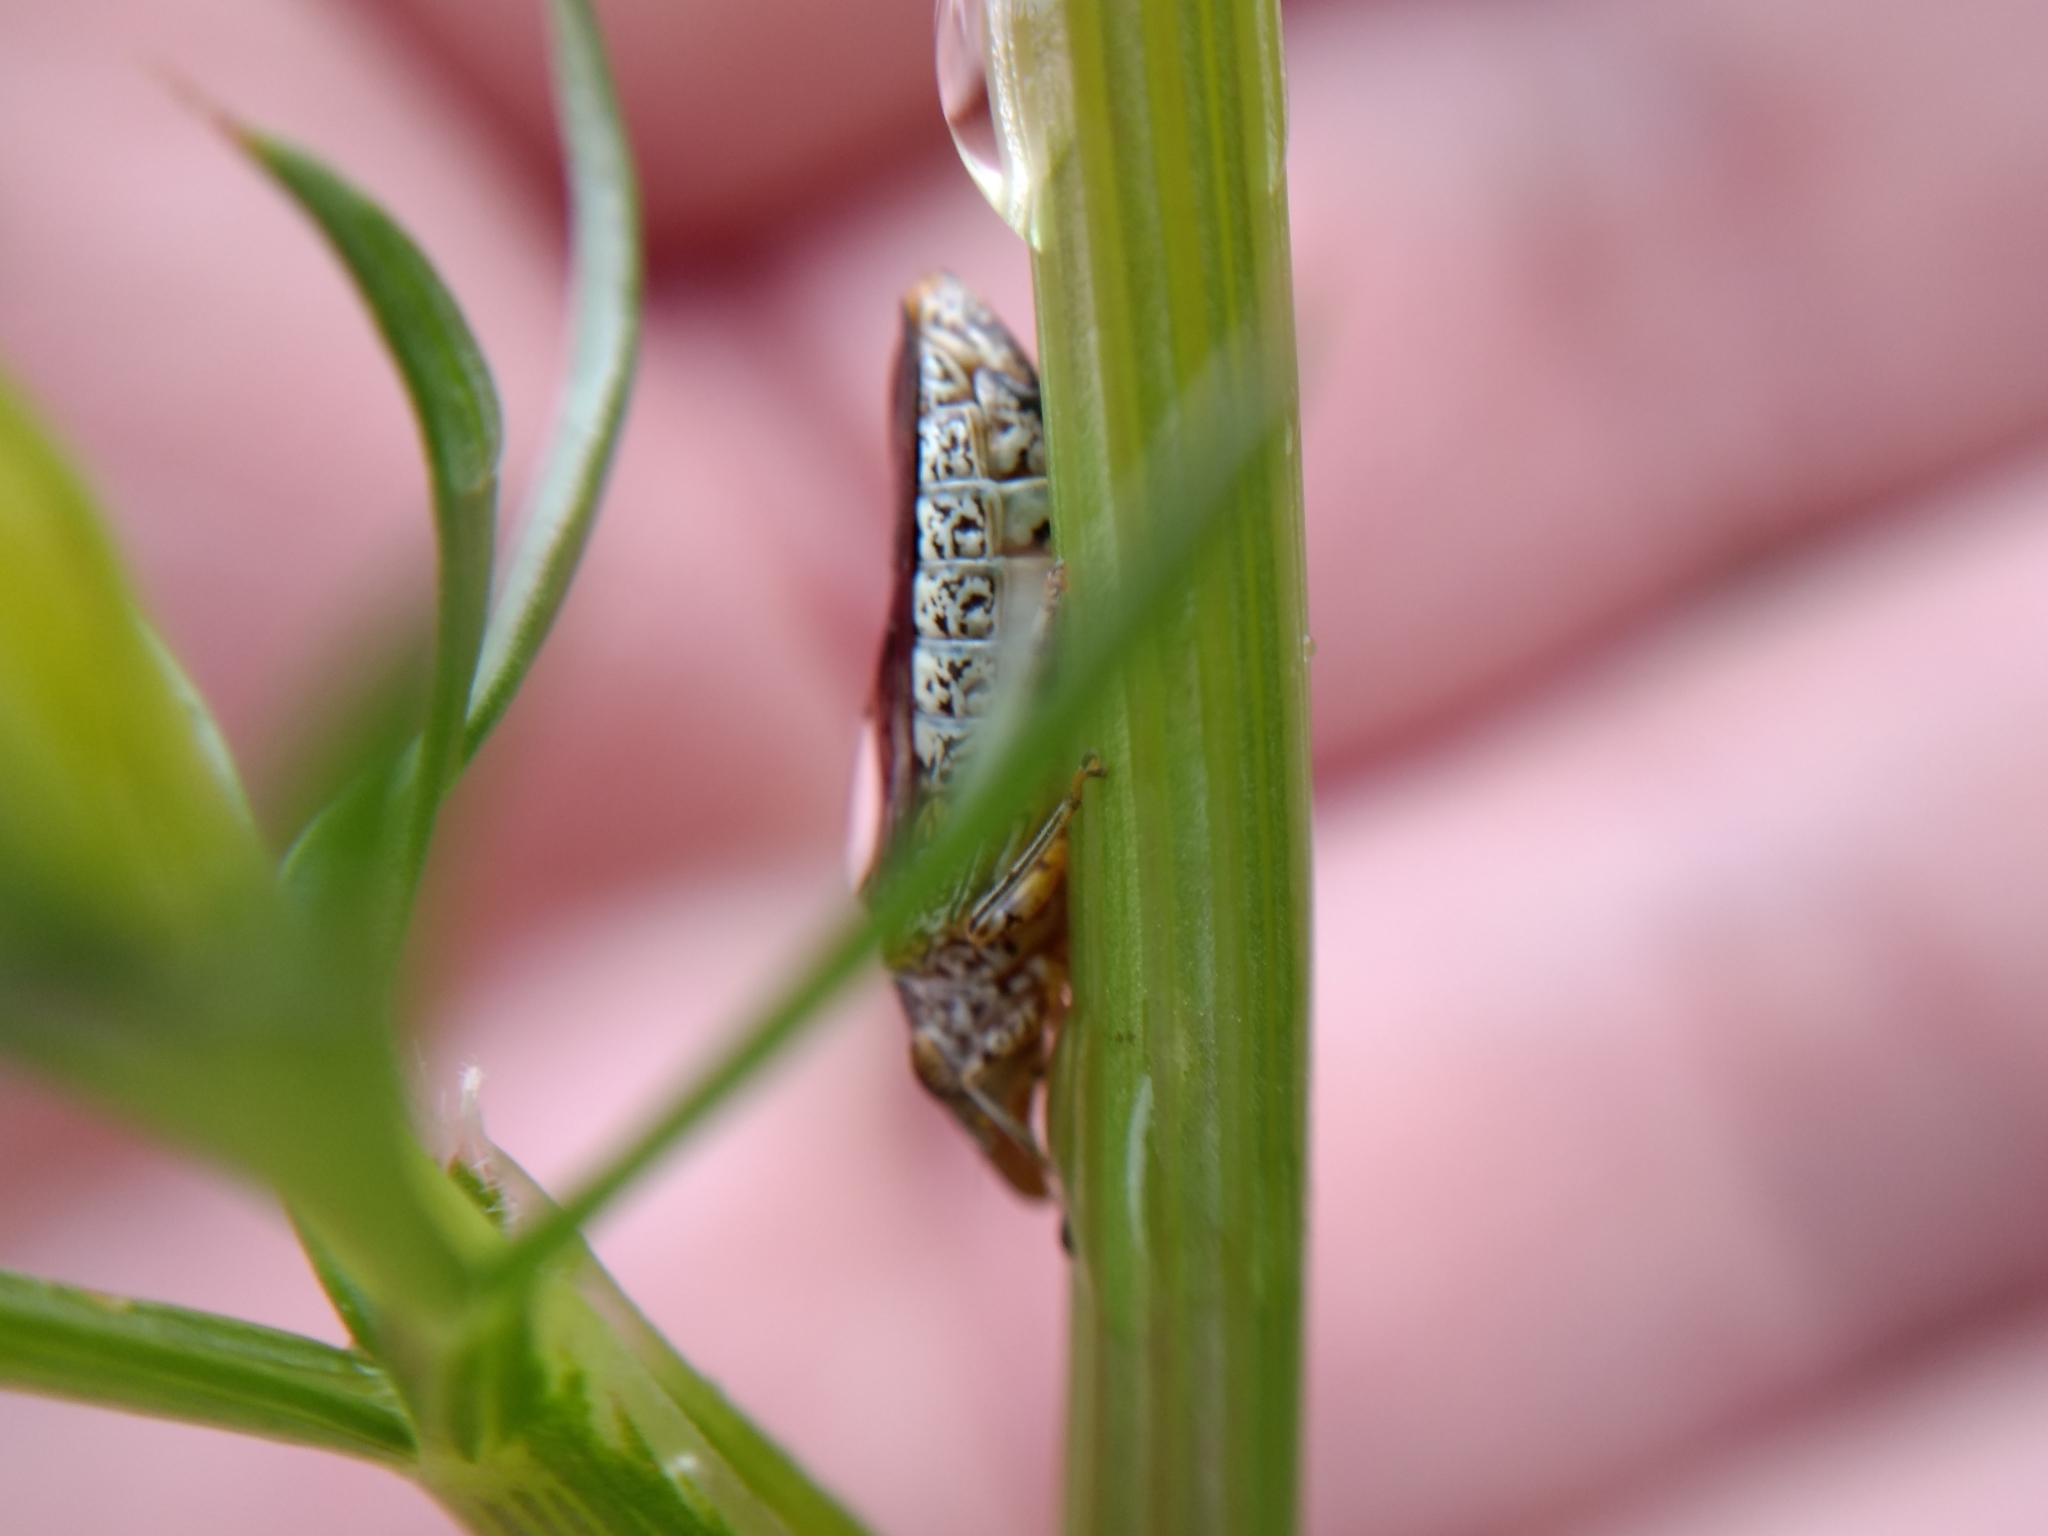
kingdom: Animalia
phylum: Arthropoda
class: Insecta
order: Hemiptera
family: Cicadellidae
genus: Homalodisca
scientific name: Homalodisca vitripennis
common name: Glassy-winged sharpshooter
